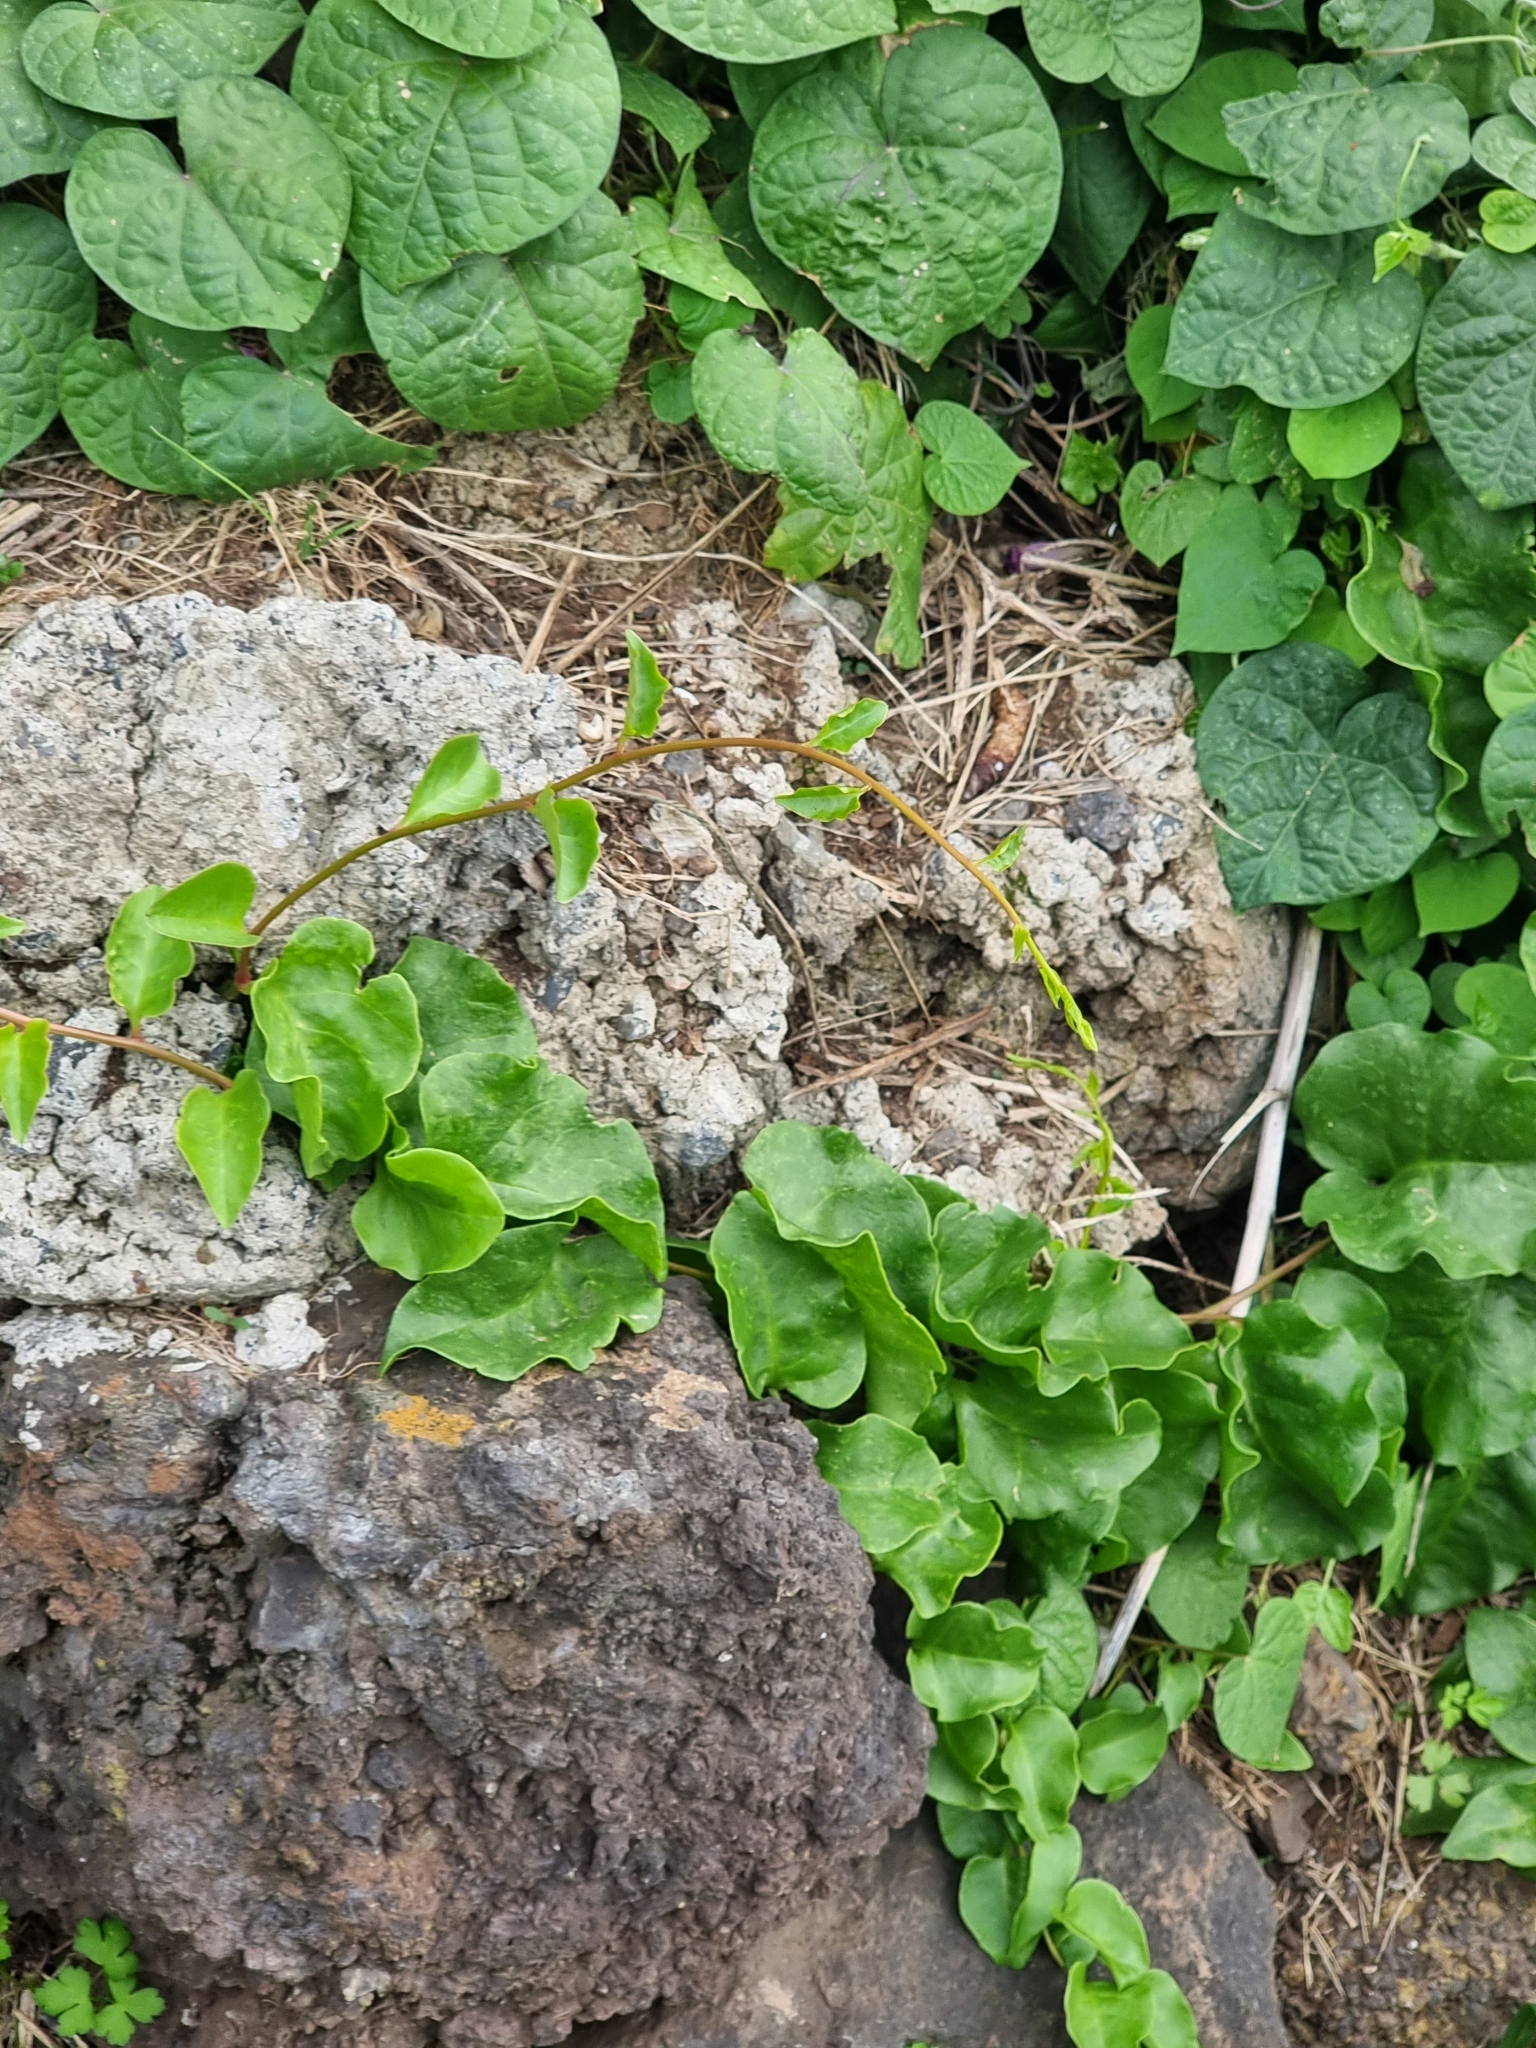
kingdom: Plantae
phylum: Tracheophyta
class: Magnoliopsida
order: Caryophyllales
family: Basellaceae
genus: Anredera
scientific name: Anredera cordifolia
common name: Heartleaf madeiravine
